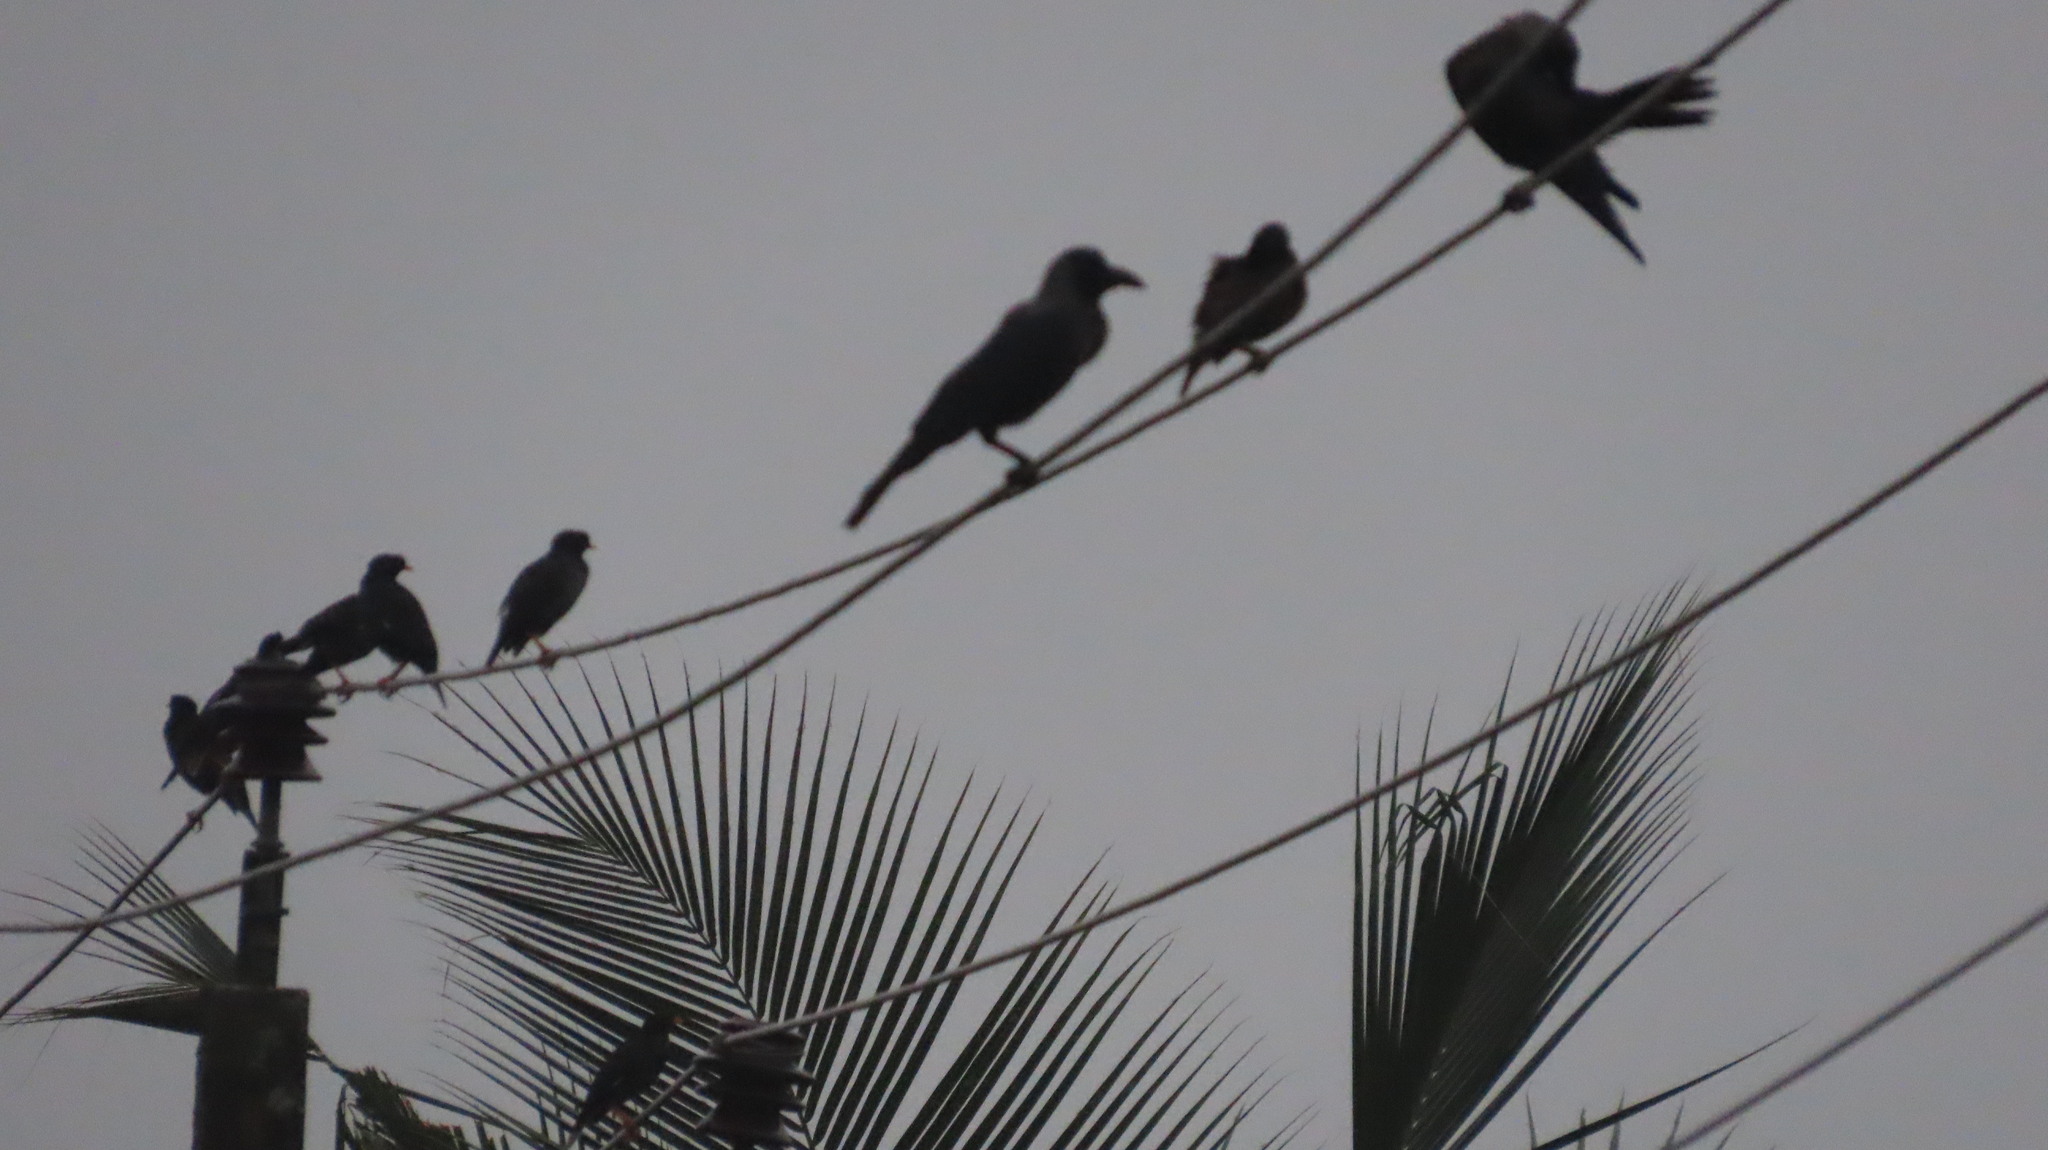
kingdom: Animalia
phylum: Chordata
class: Aves
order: Passeriformes
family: Sturnidae
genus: Acridotheres
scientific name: Acridotheres fuscus
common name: Jungle myna
